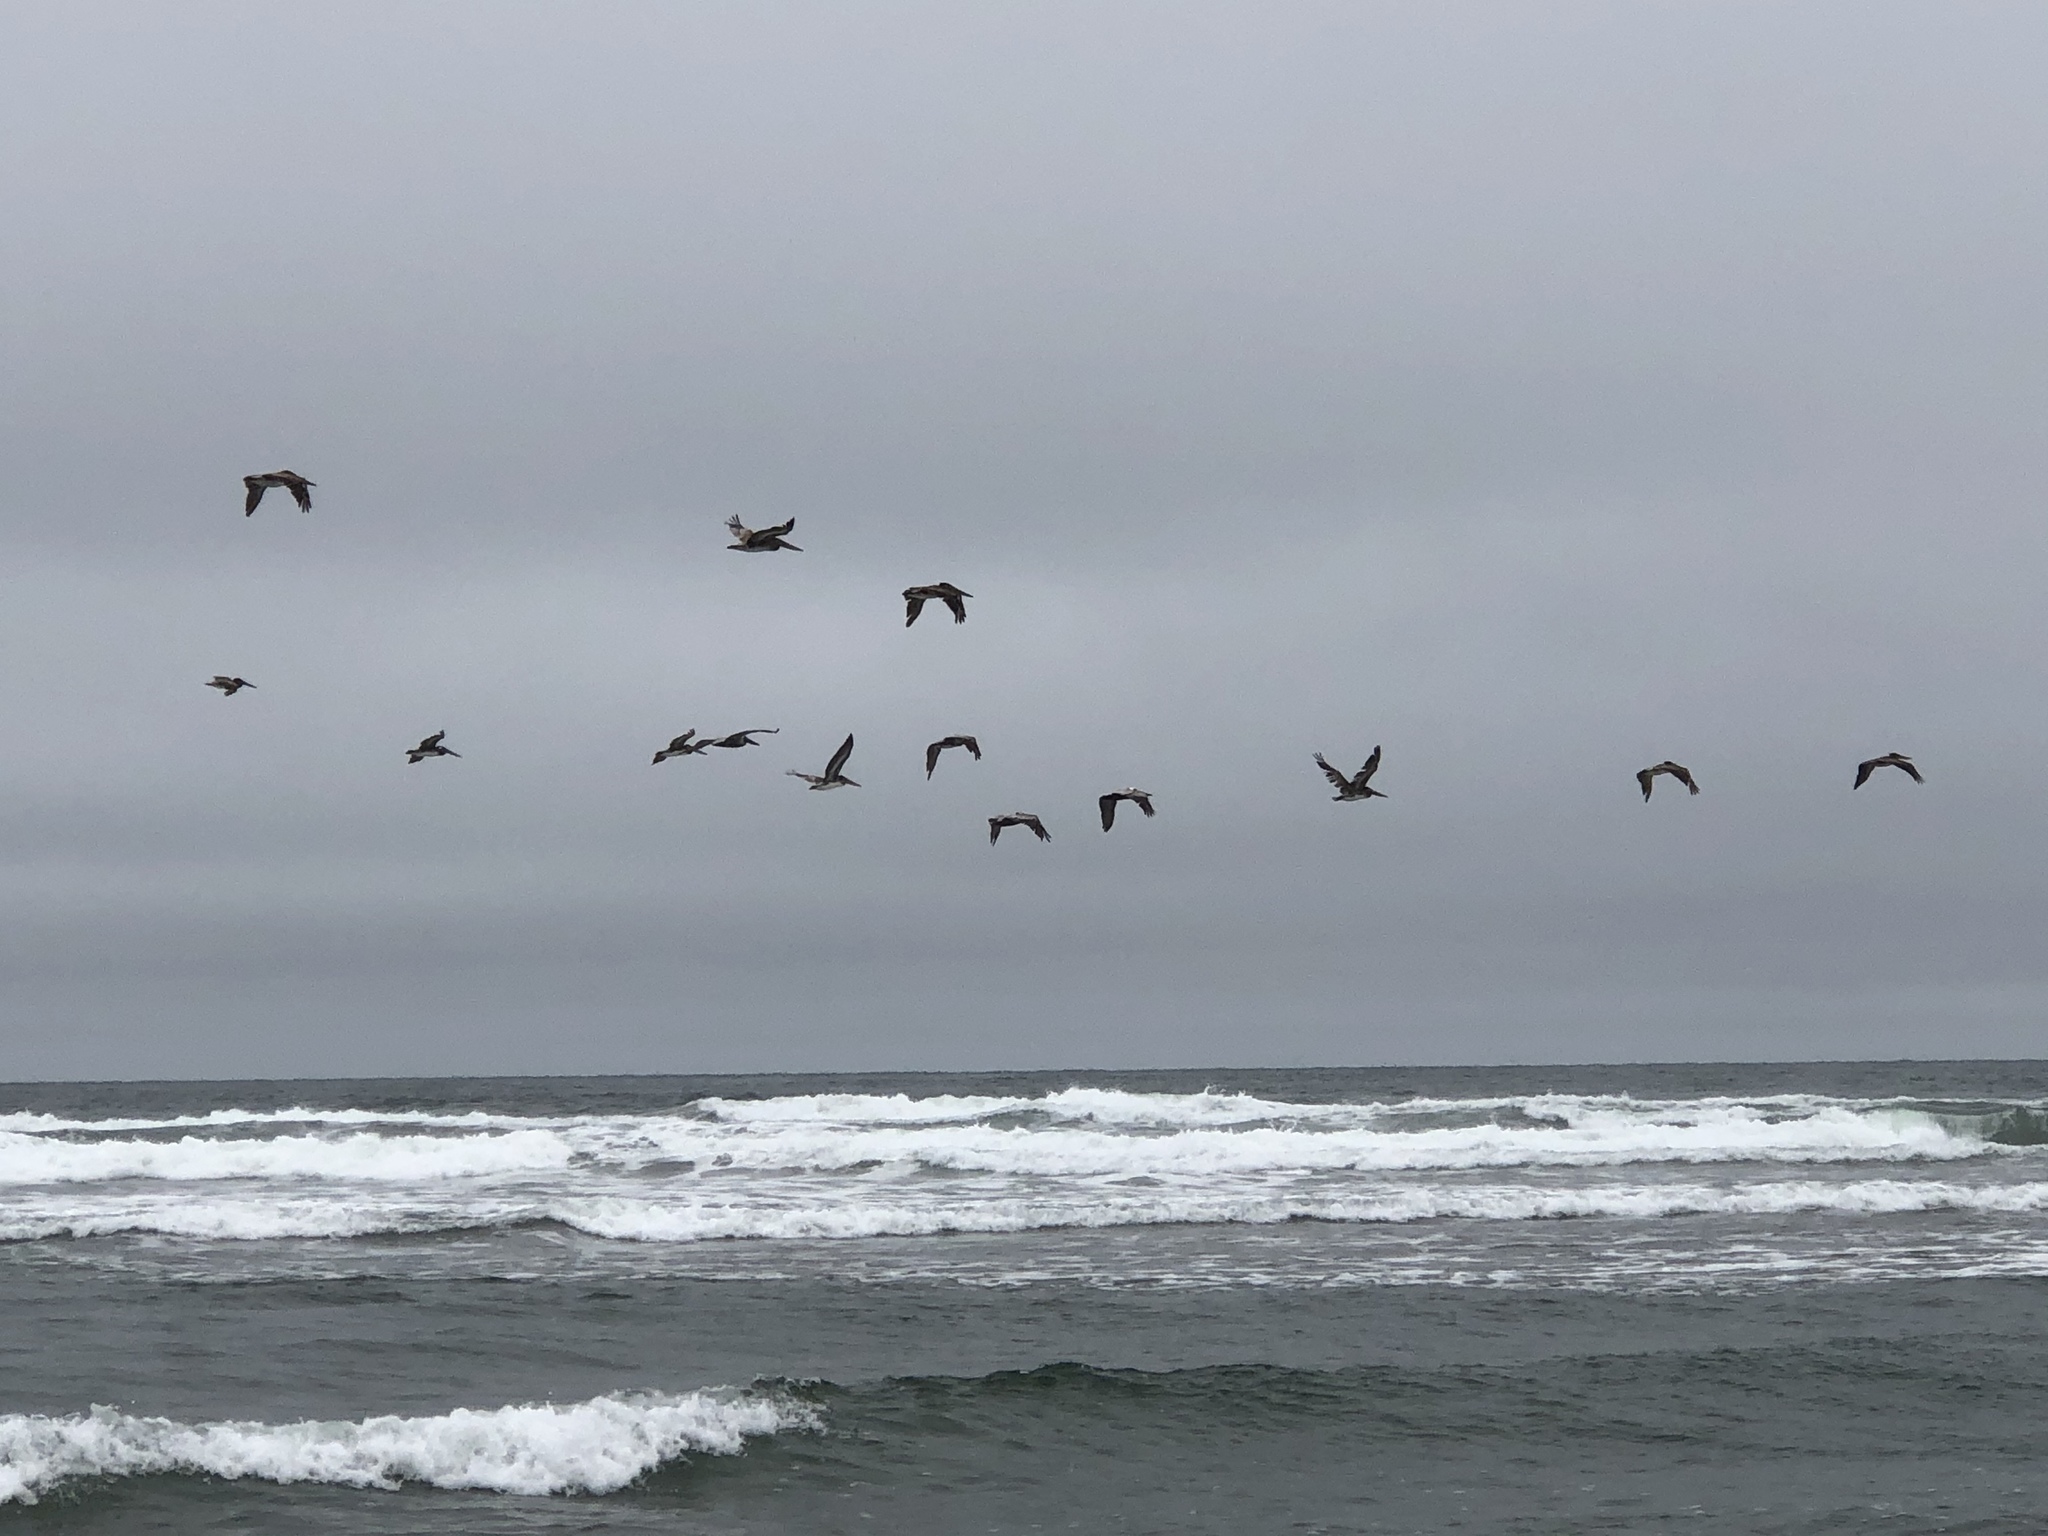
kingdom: Animalia
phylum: Chordata
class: Aves
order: Pelecaniformes
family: Pelecanidae
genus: Pelecanus
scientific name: Pelecanus occidentalis
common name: Brown pelican
